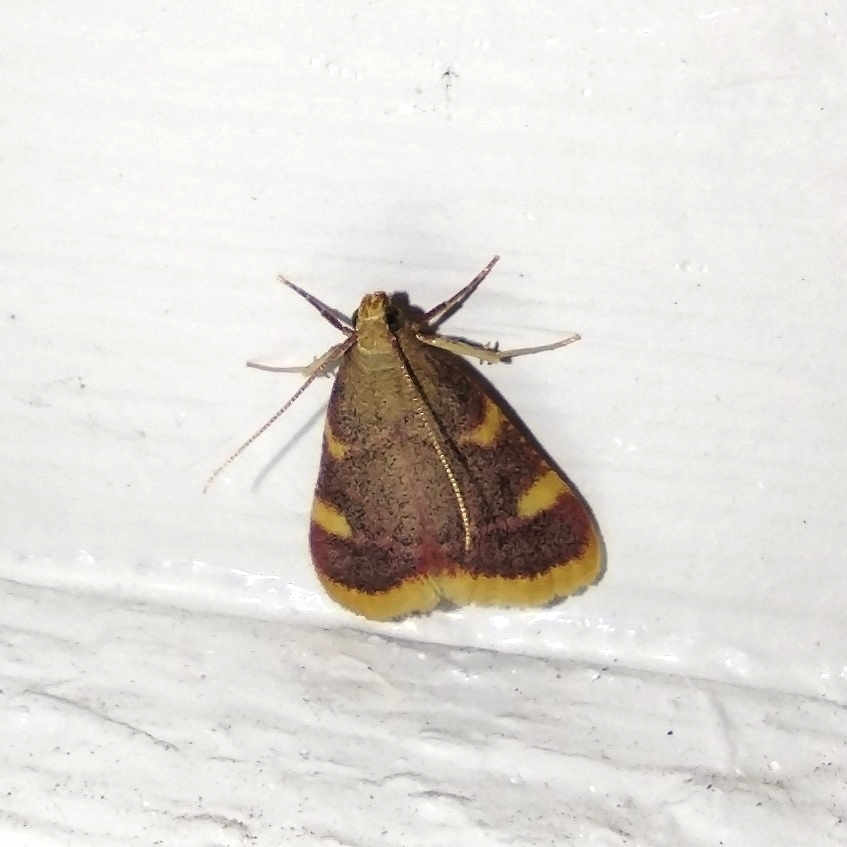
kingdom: Animalia
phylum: Arthropoda
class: Insecta
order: Lepidoptera
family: Pyralidae
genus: Hypsopygia
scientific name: Hypsopygia costalis
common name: Gold triangle
